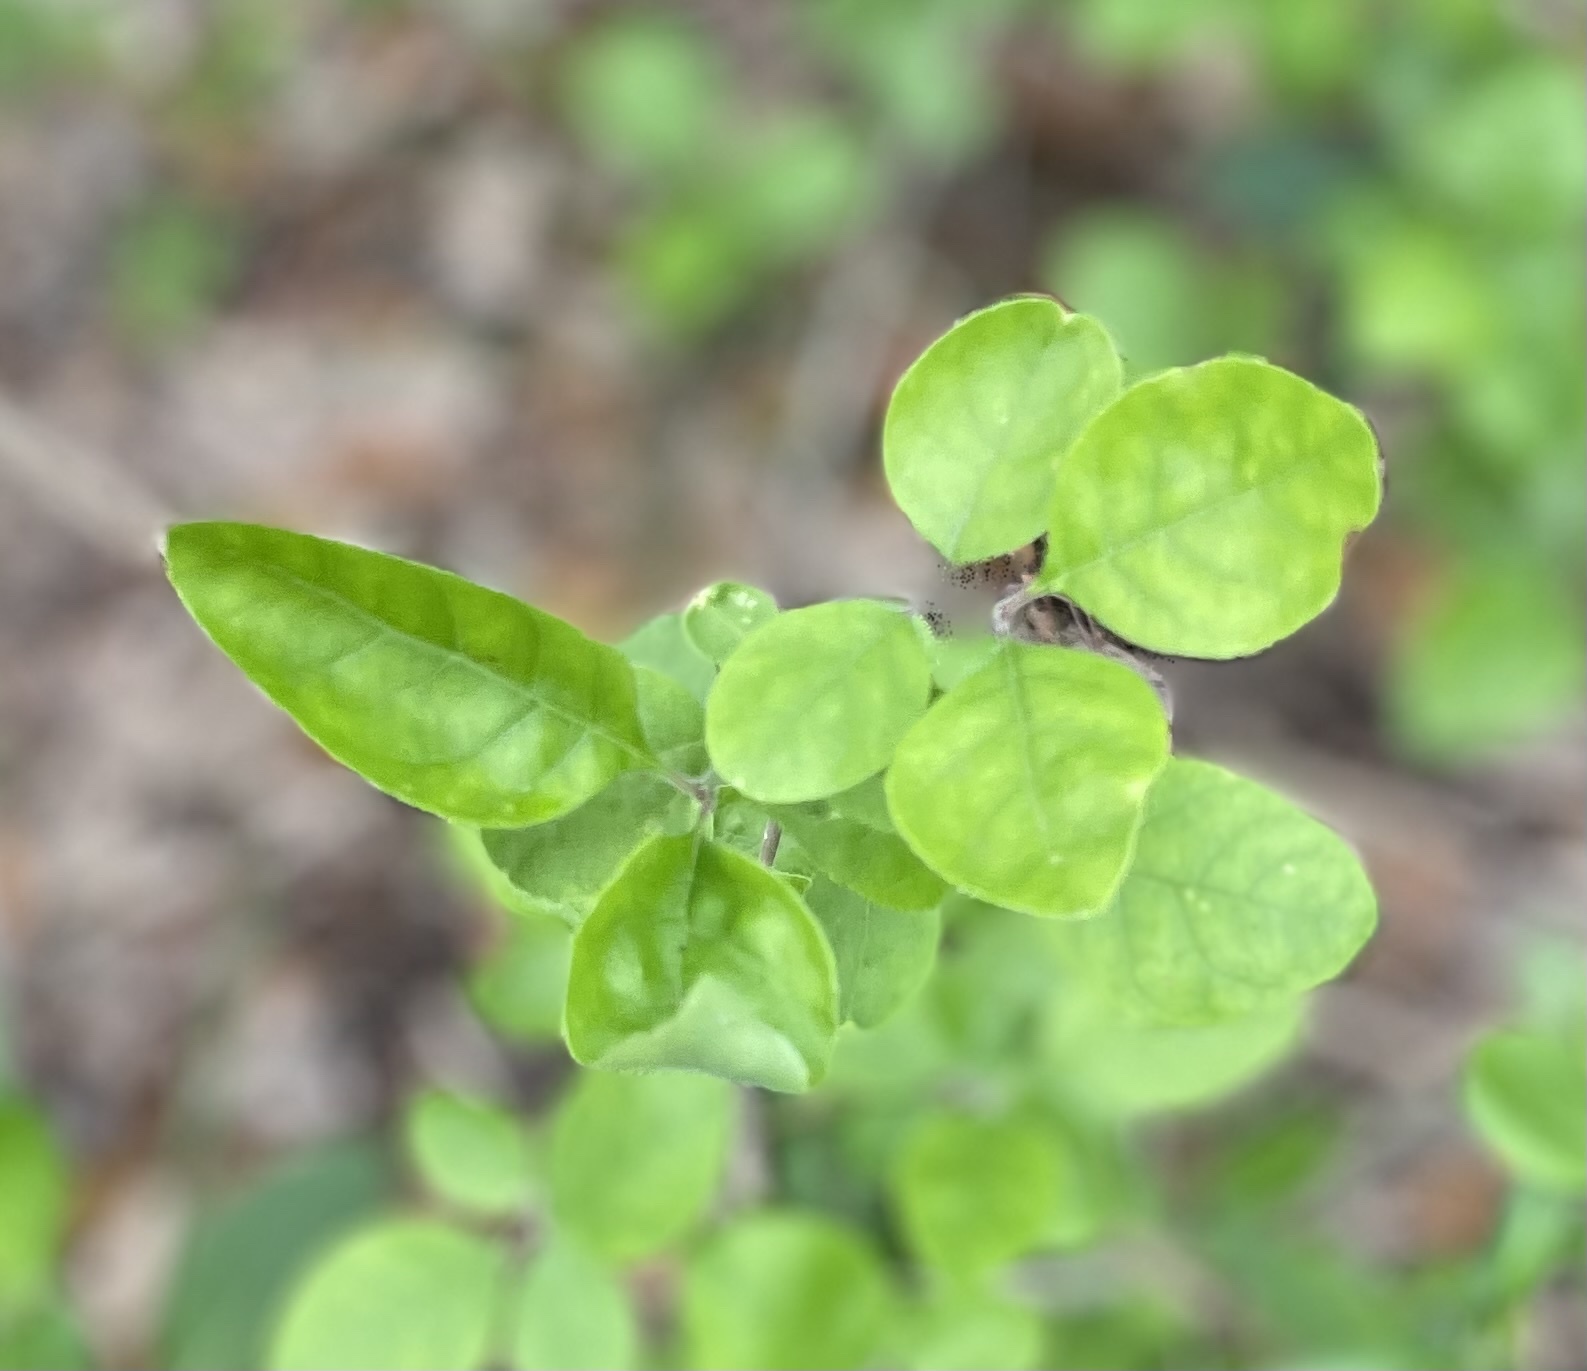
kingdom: Plantae
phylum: Tracheophyta
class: Magnoliopsida
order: Lamiales
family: Oleaceae
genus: Forestiera
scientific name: Forestiera pubescens
